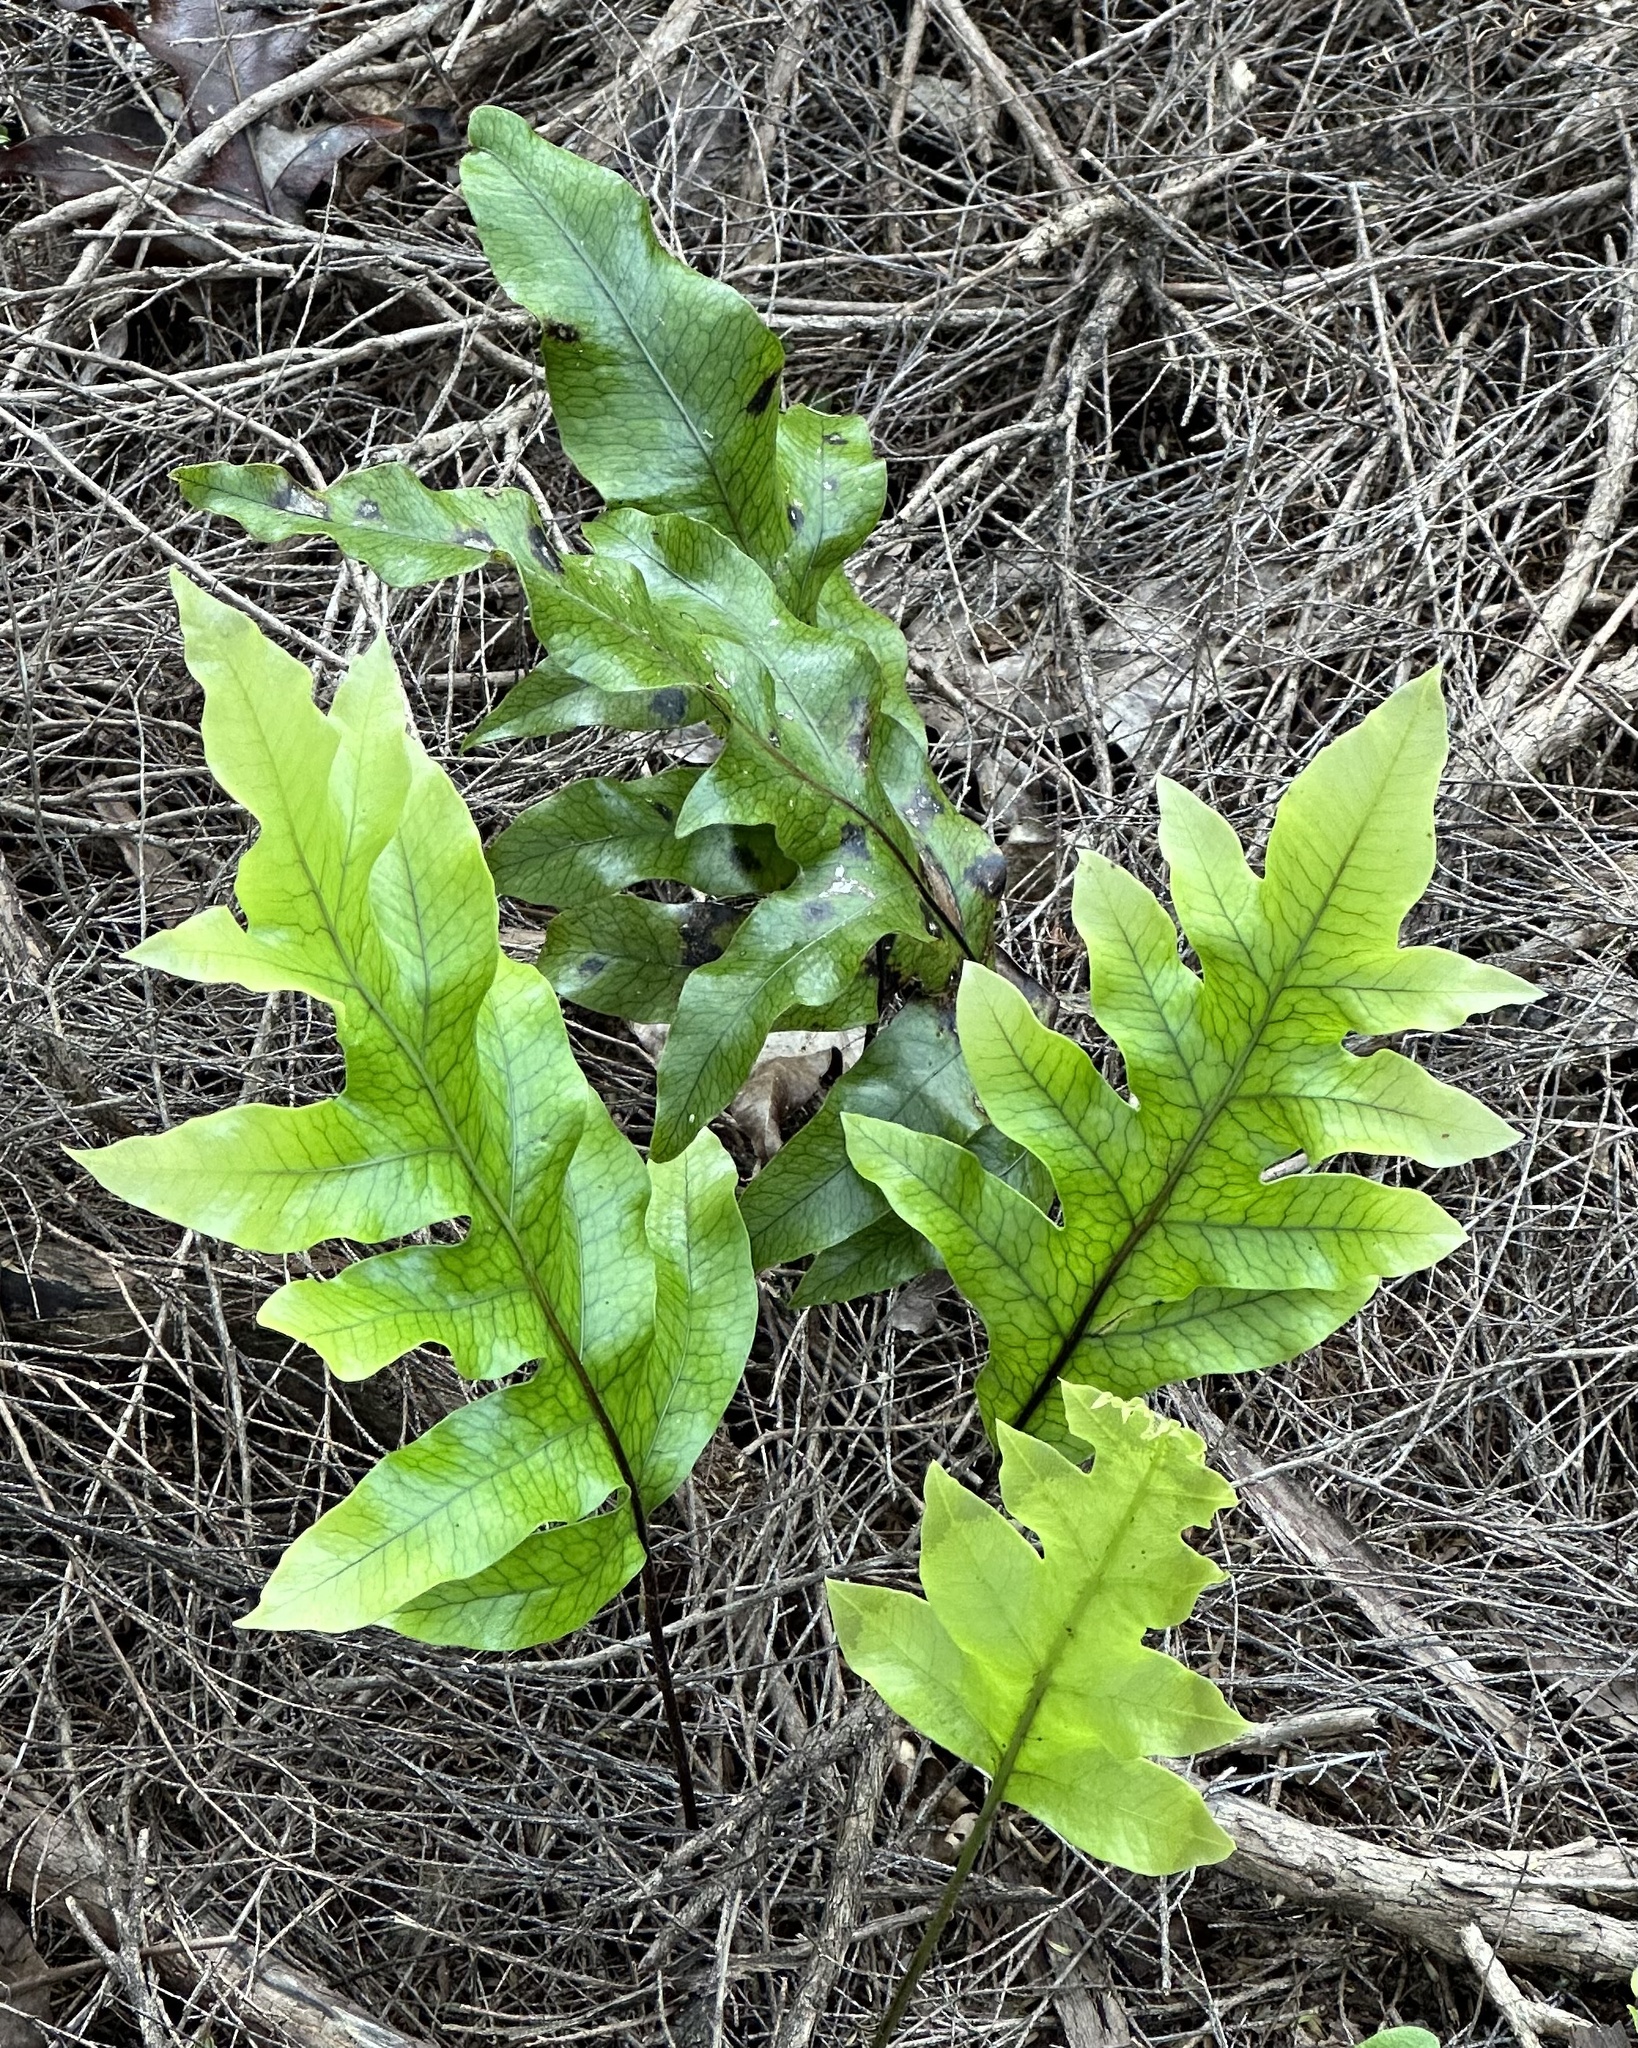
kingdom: Plantae
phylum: Tracheophyta
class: Polypodiopsida
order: Polypodiales
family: Polypodiaceae
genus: Lecanopteris
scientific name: Lecanopteris pustulata
